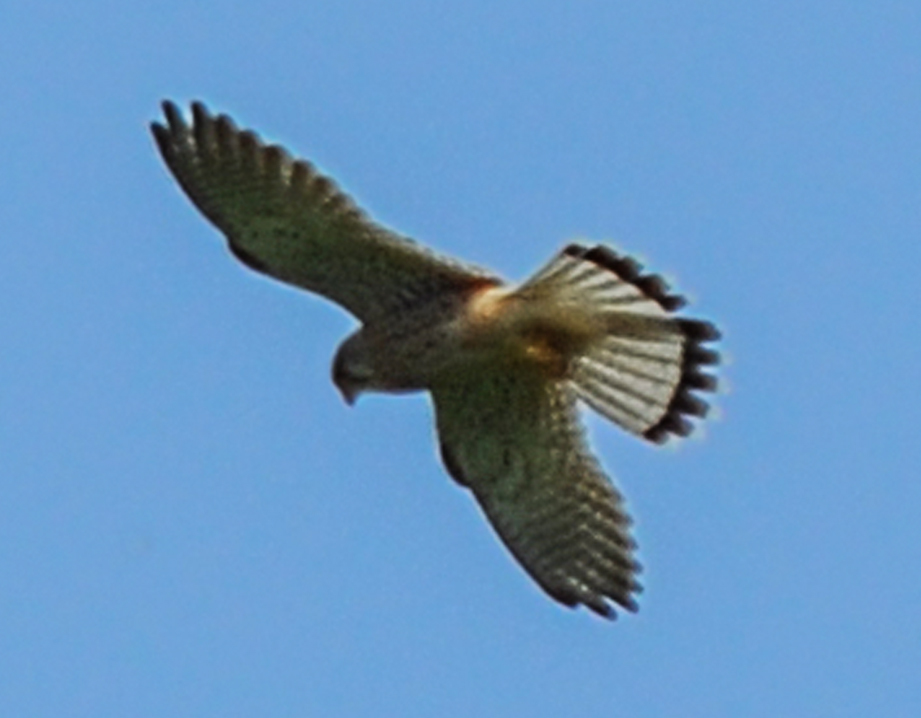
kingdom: Animalia
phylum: Chordata
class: Aves
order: Falconiformes
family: Falconidae
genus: Falco
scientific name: Falco tinnunculus
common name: Common kestrel
